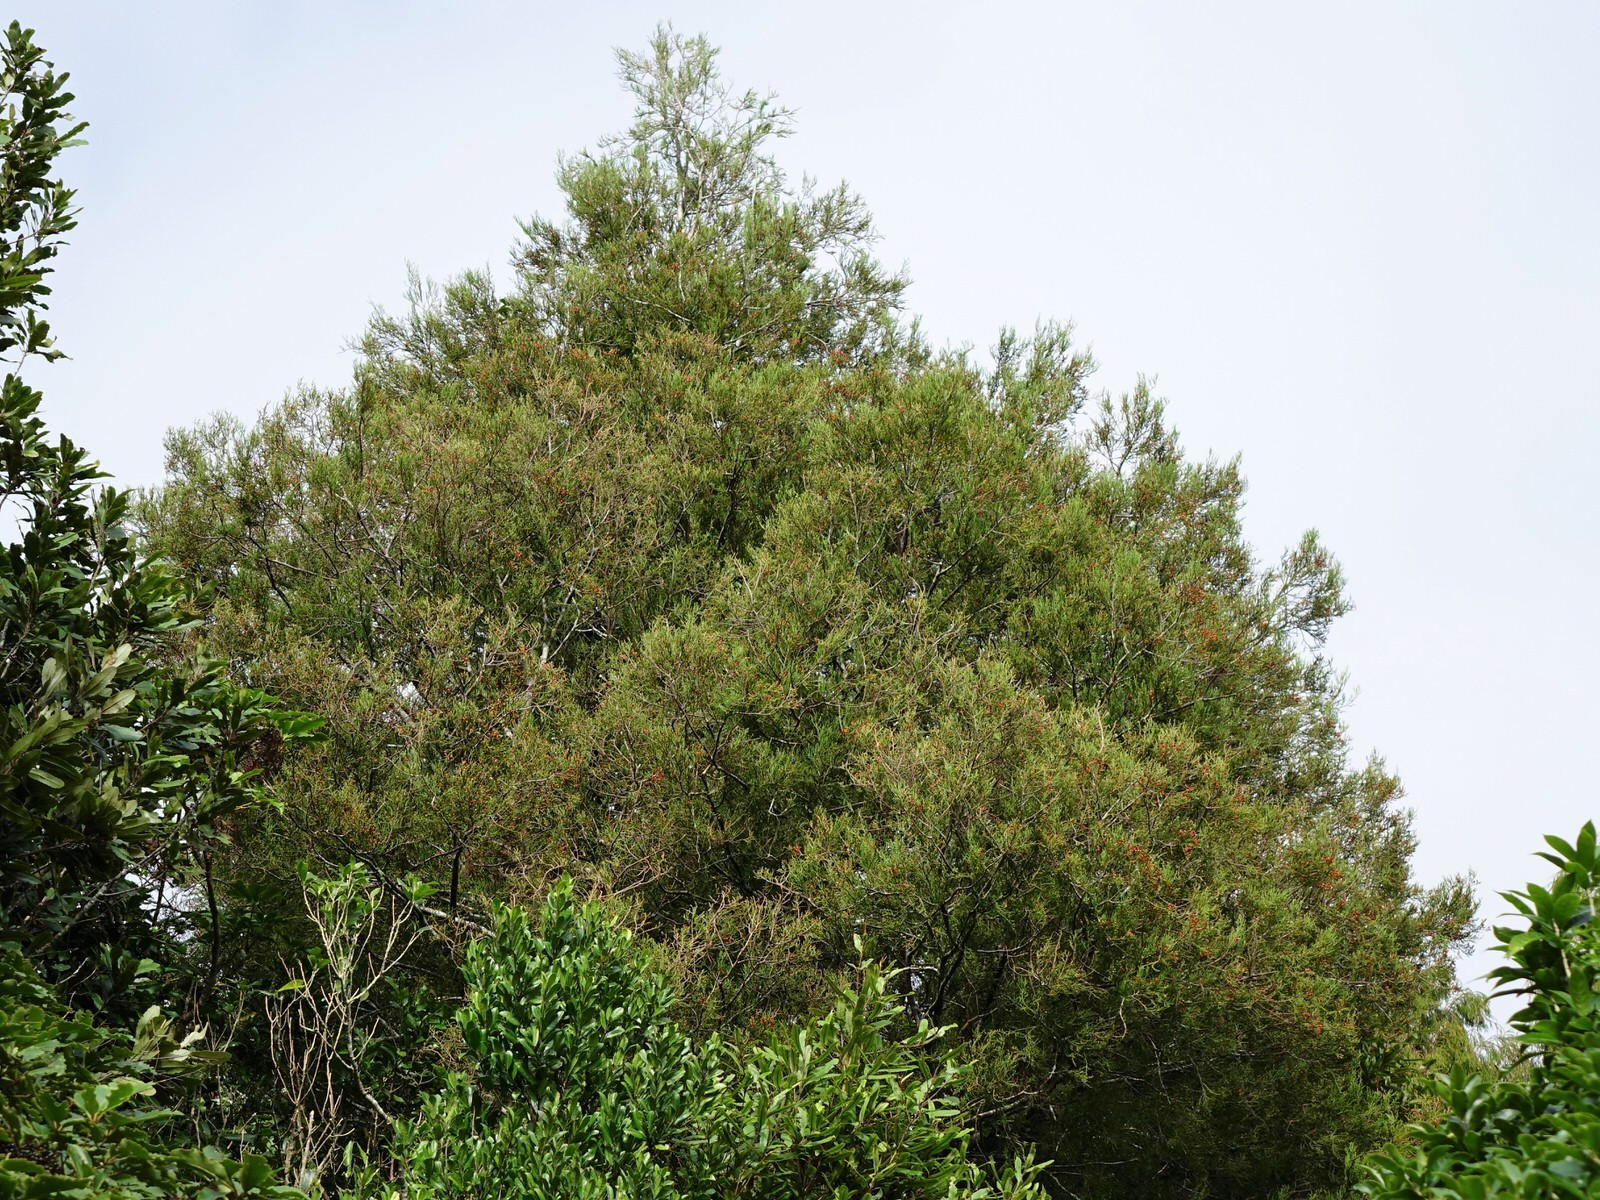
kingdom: Plantae
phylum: Tracheophyta
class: Pinopsida
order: Pinales
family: Podocarpaceae
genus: Dacrycarpus
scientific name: Dacrycarpus dacrydioides
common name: White pine
